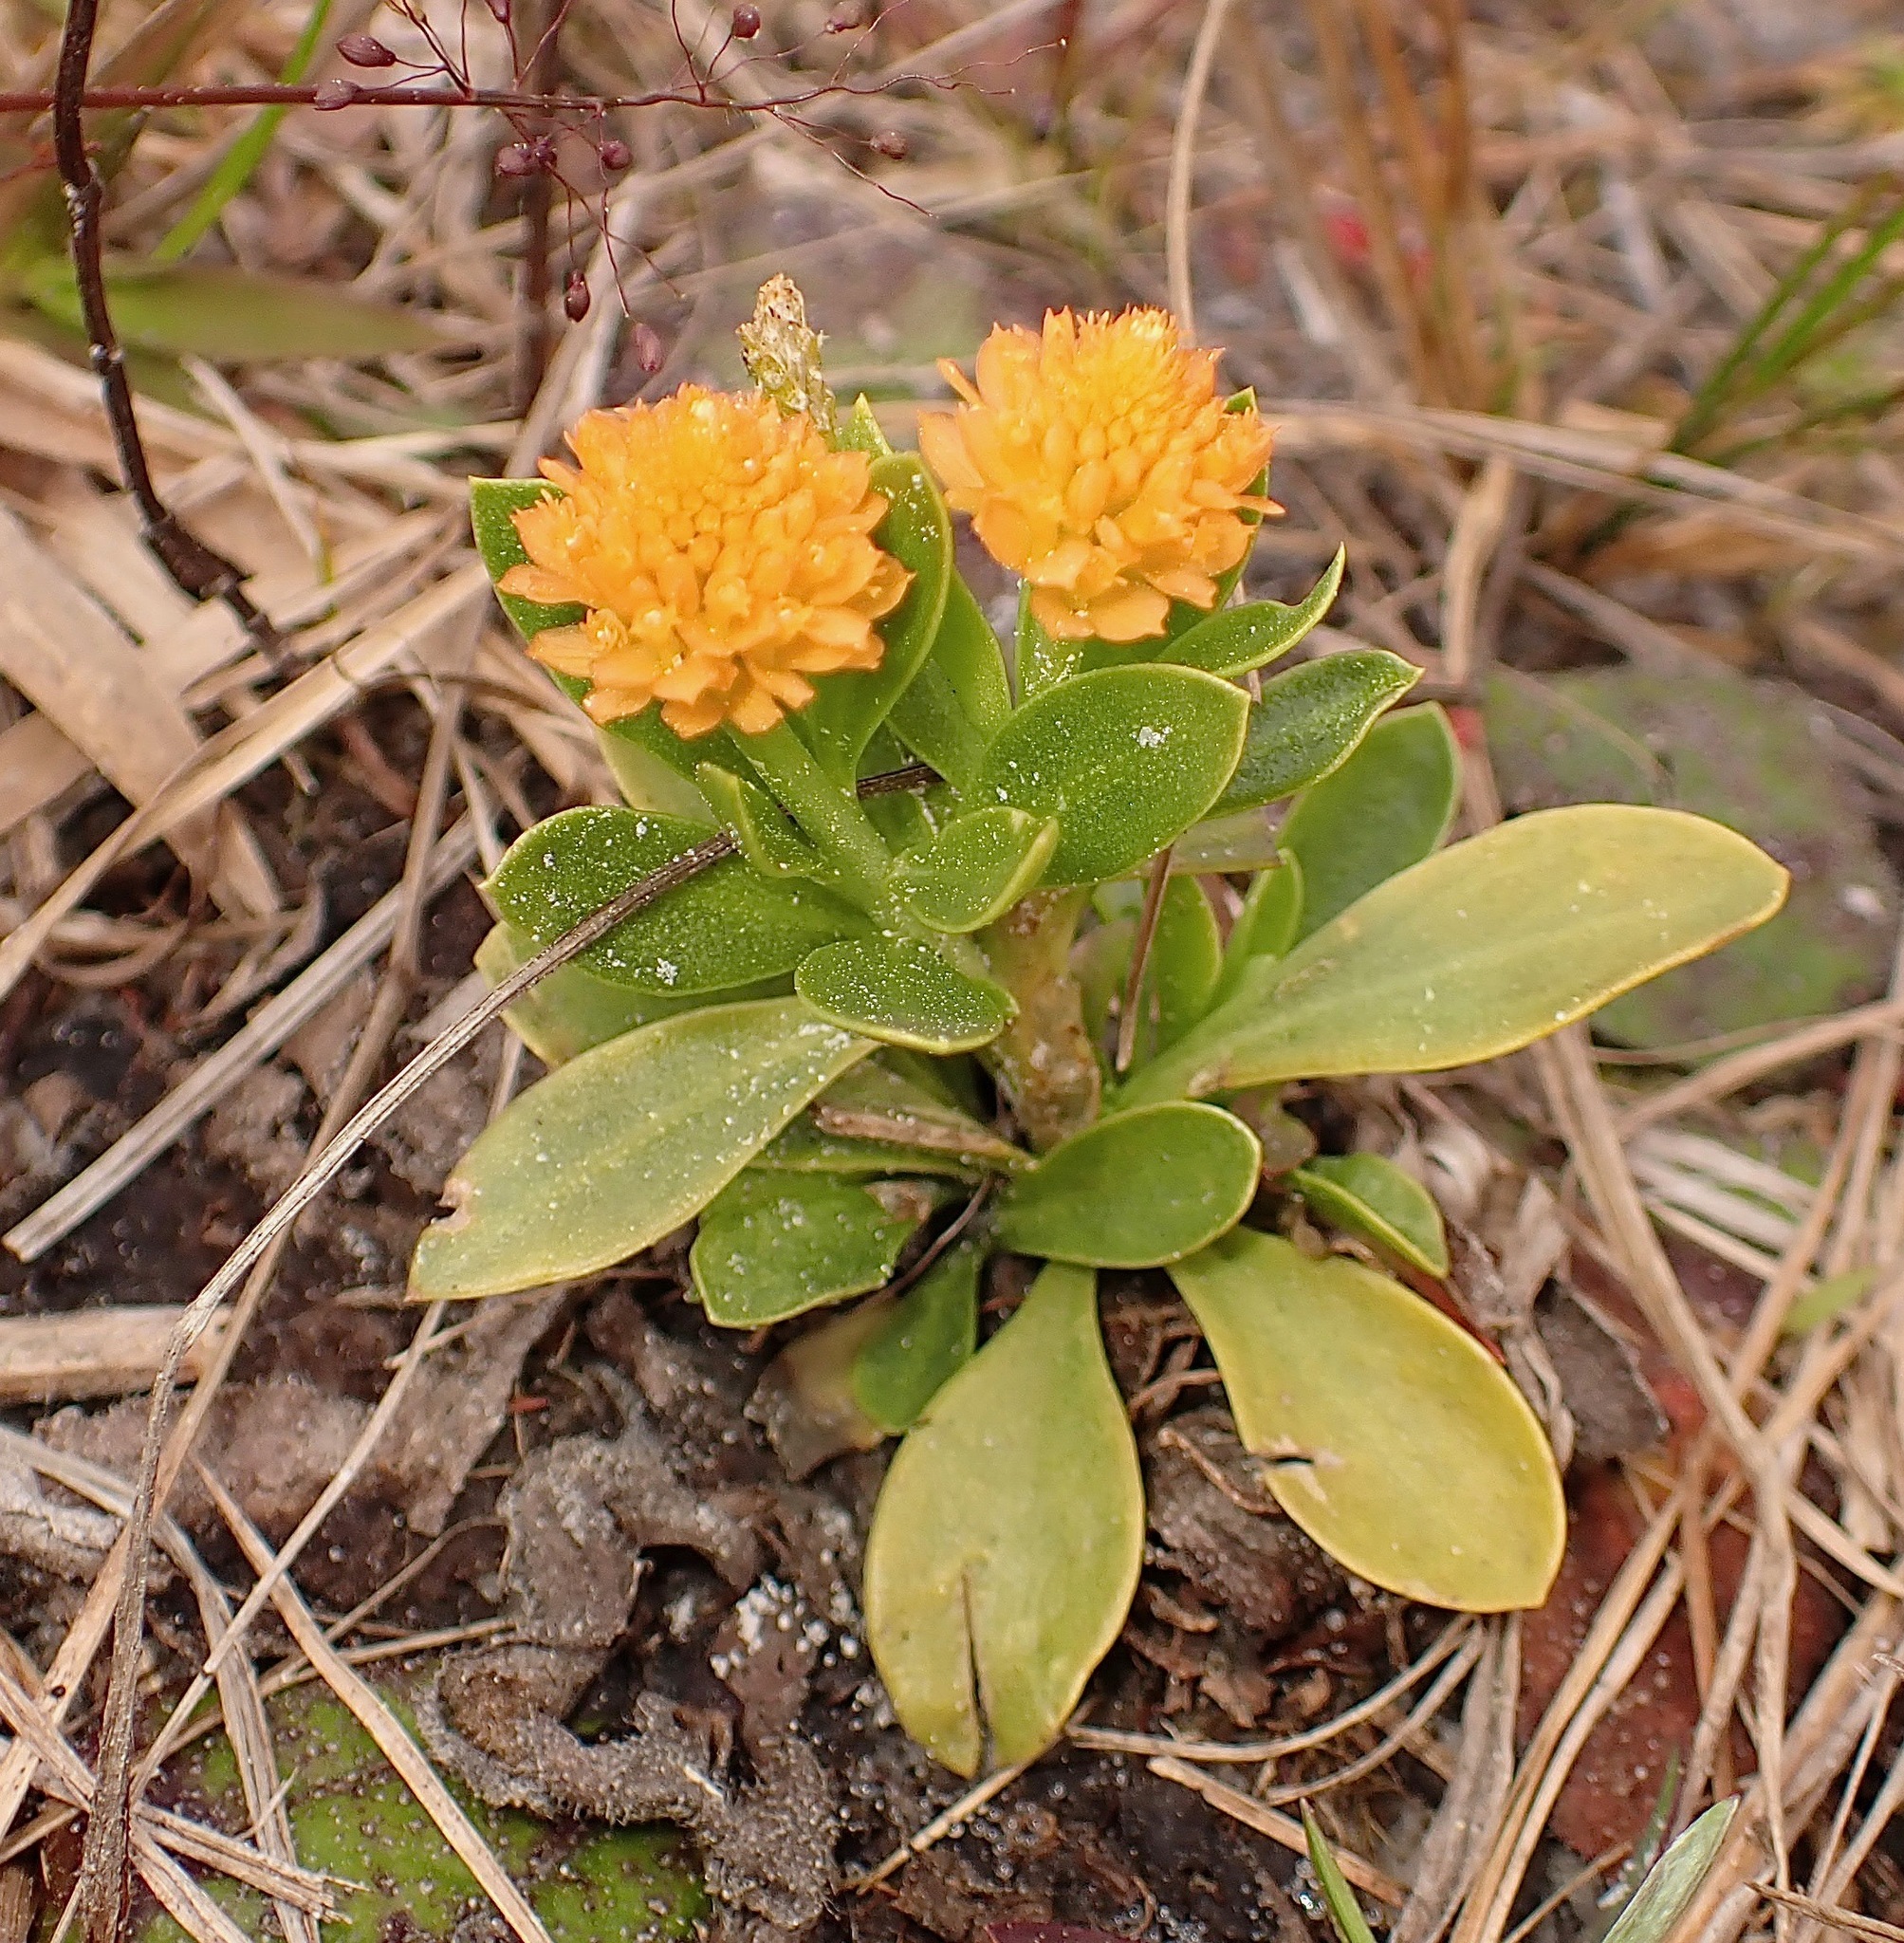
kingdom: Plantae
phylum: Tracheophyta
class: Magnoliopsida
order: Fabales
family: Polygalaceae
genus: Polygala
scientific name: Polygala lutea
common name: Orange milkwort
